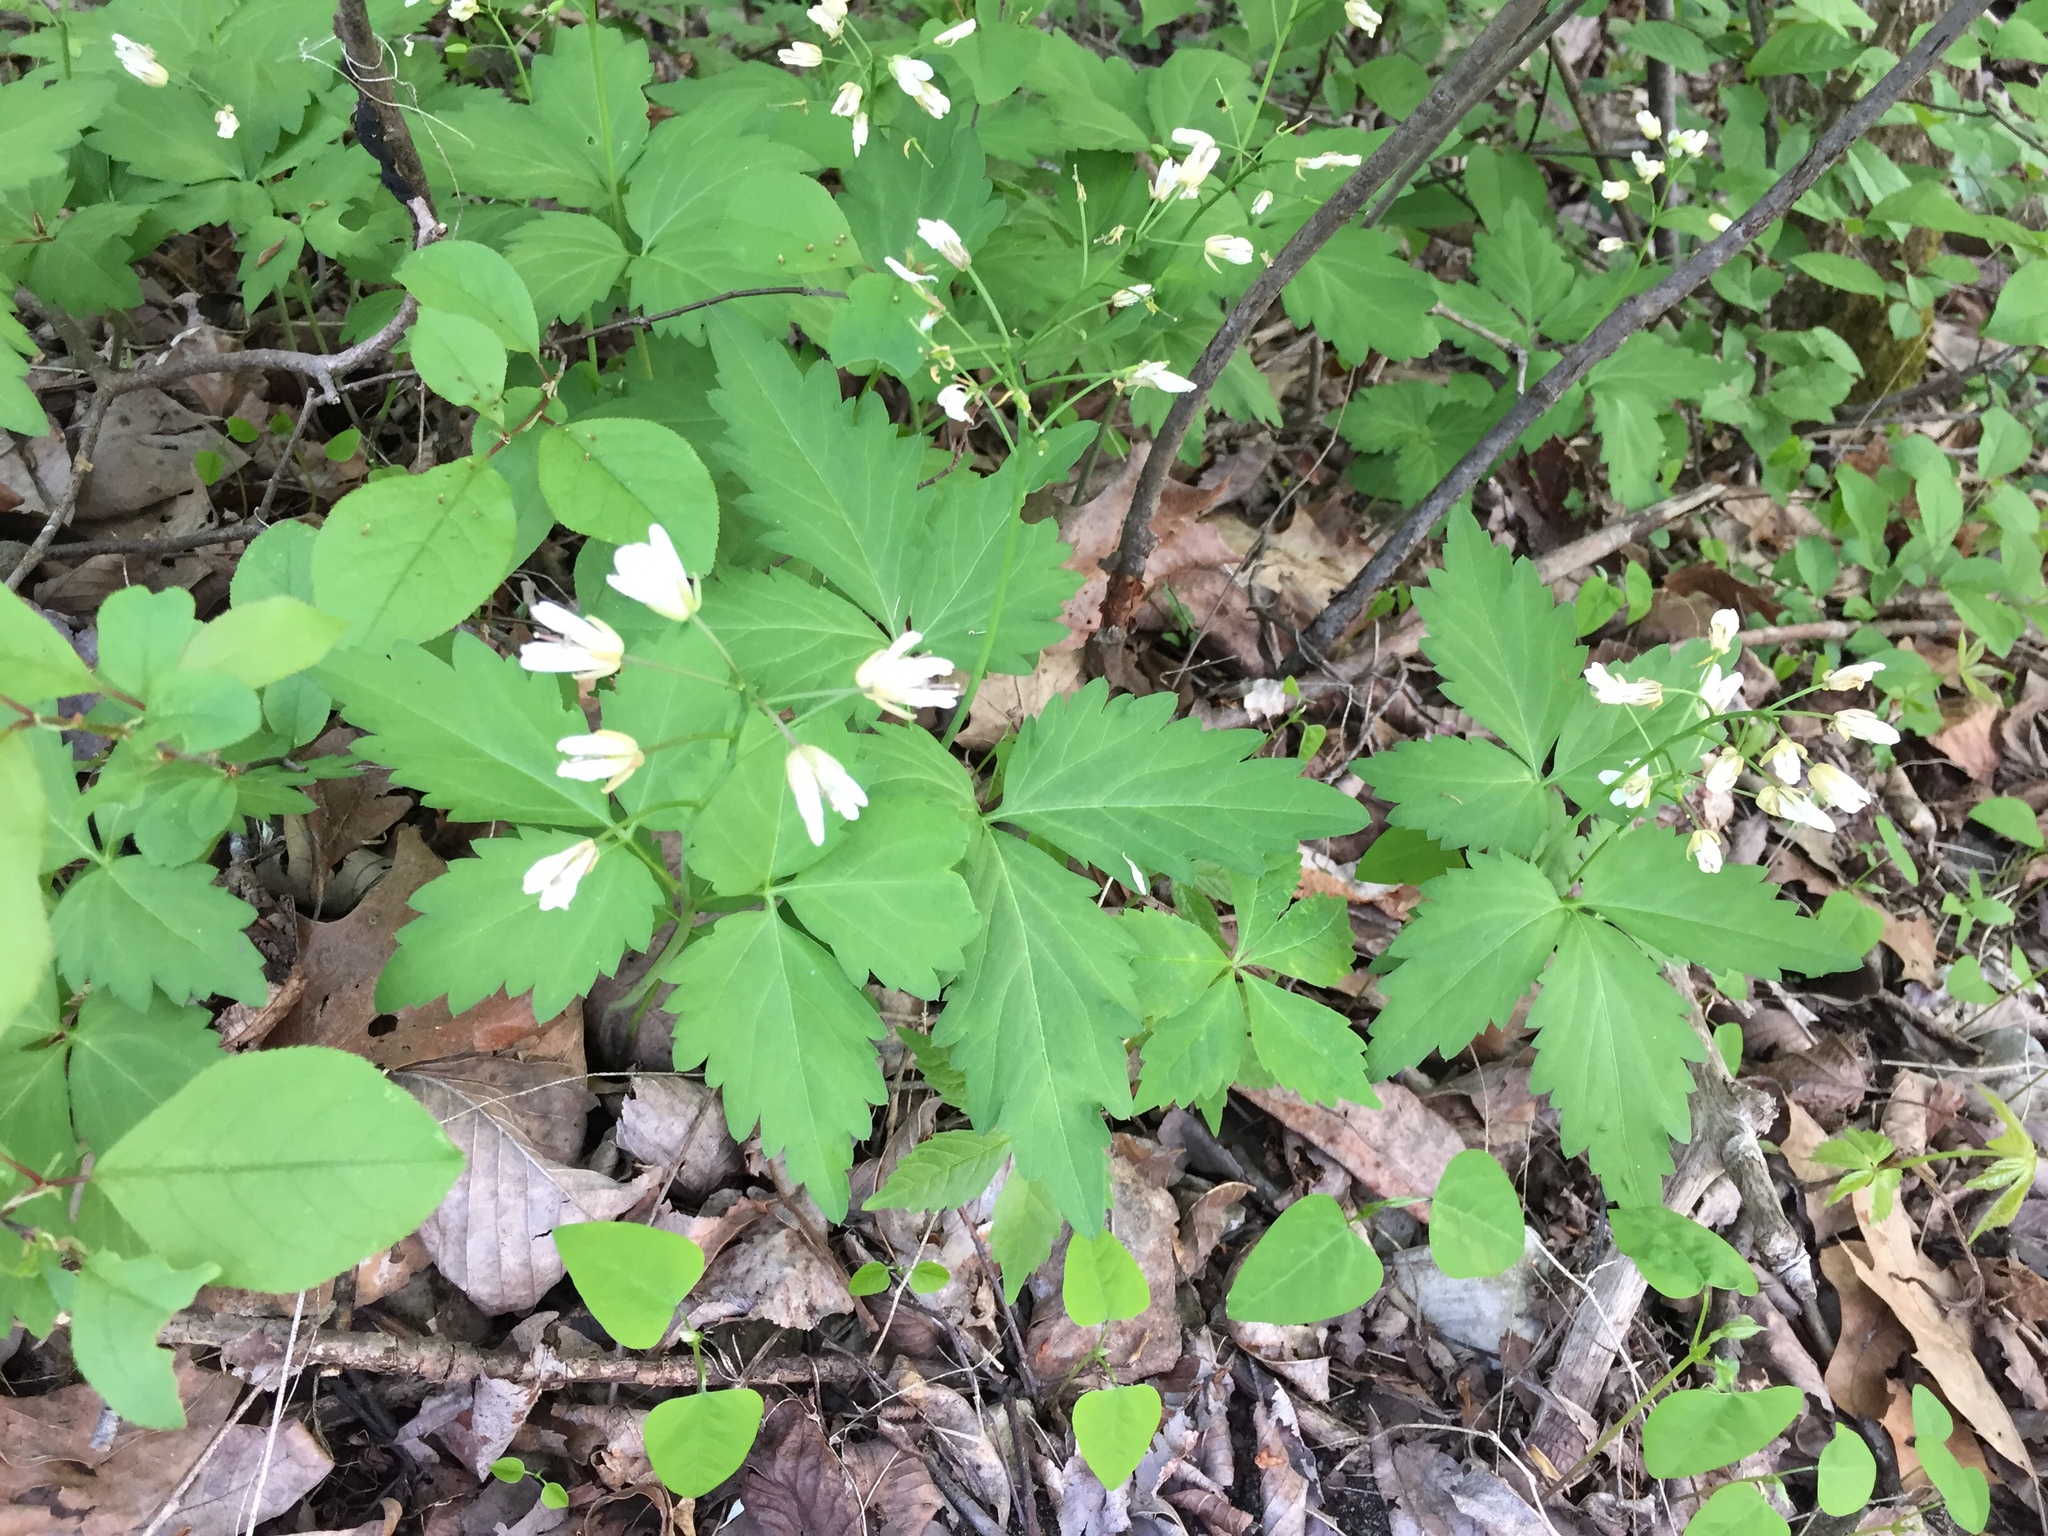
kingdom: Plantae
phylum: Tracheophyta
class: Magnoliopsida
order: Brassicales
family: Brassicaceae
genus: Cardamine
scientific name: Cardamine diphylla
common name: Broad-leaved toothwort
